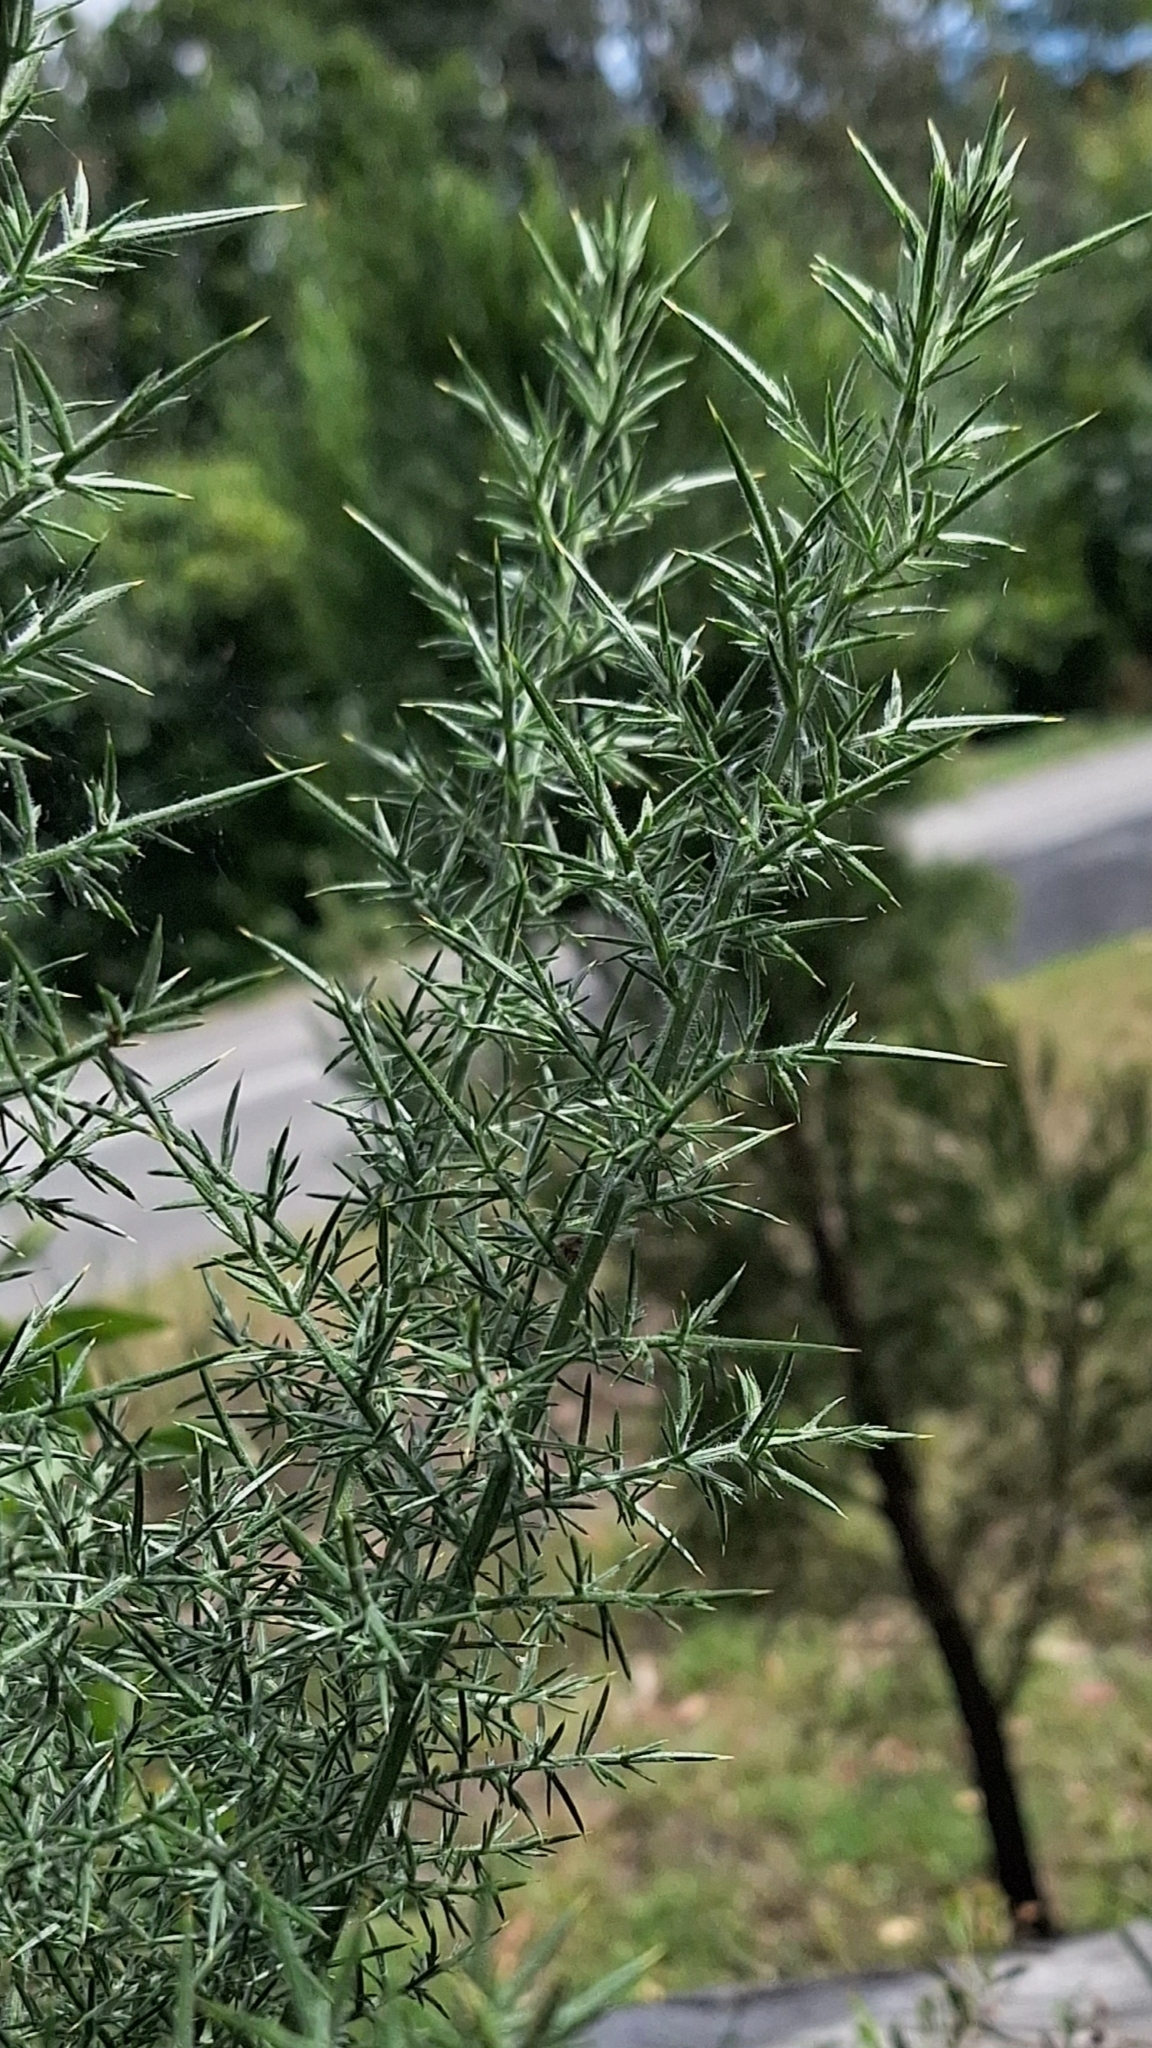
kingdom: Plantae
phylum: Tracheophyta
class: Magnoliopsida
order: Fabales
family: Fabaceae
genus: Ulex
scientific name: Ulex europaeus
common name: Common gorse
